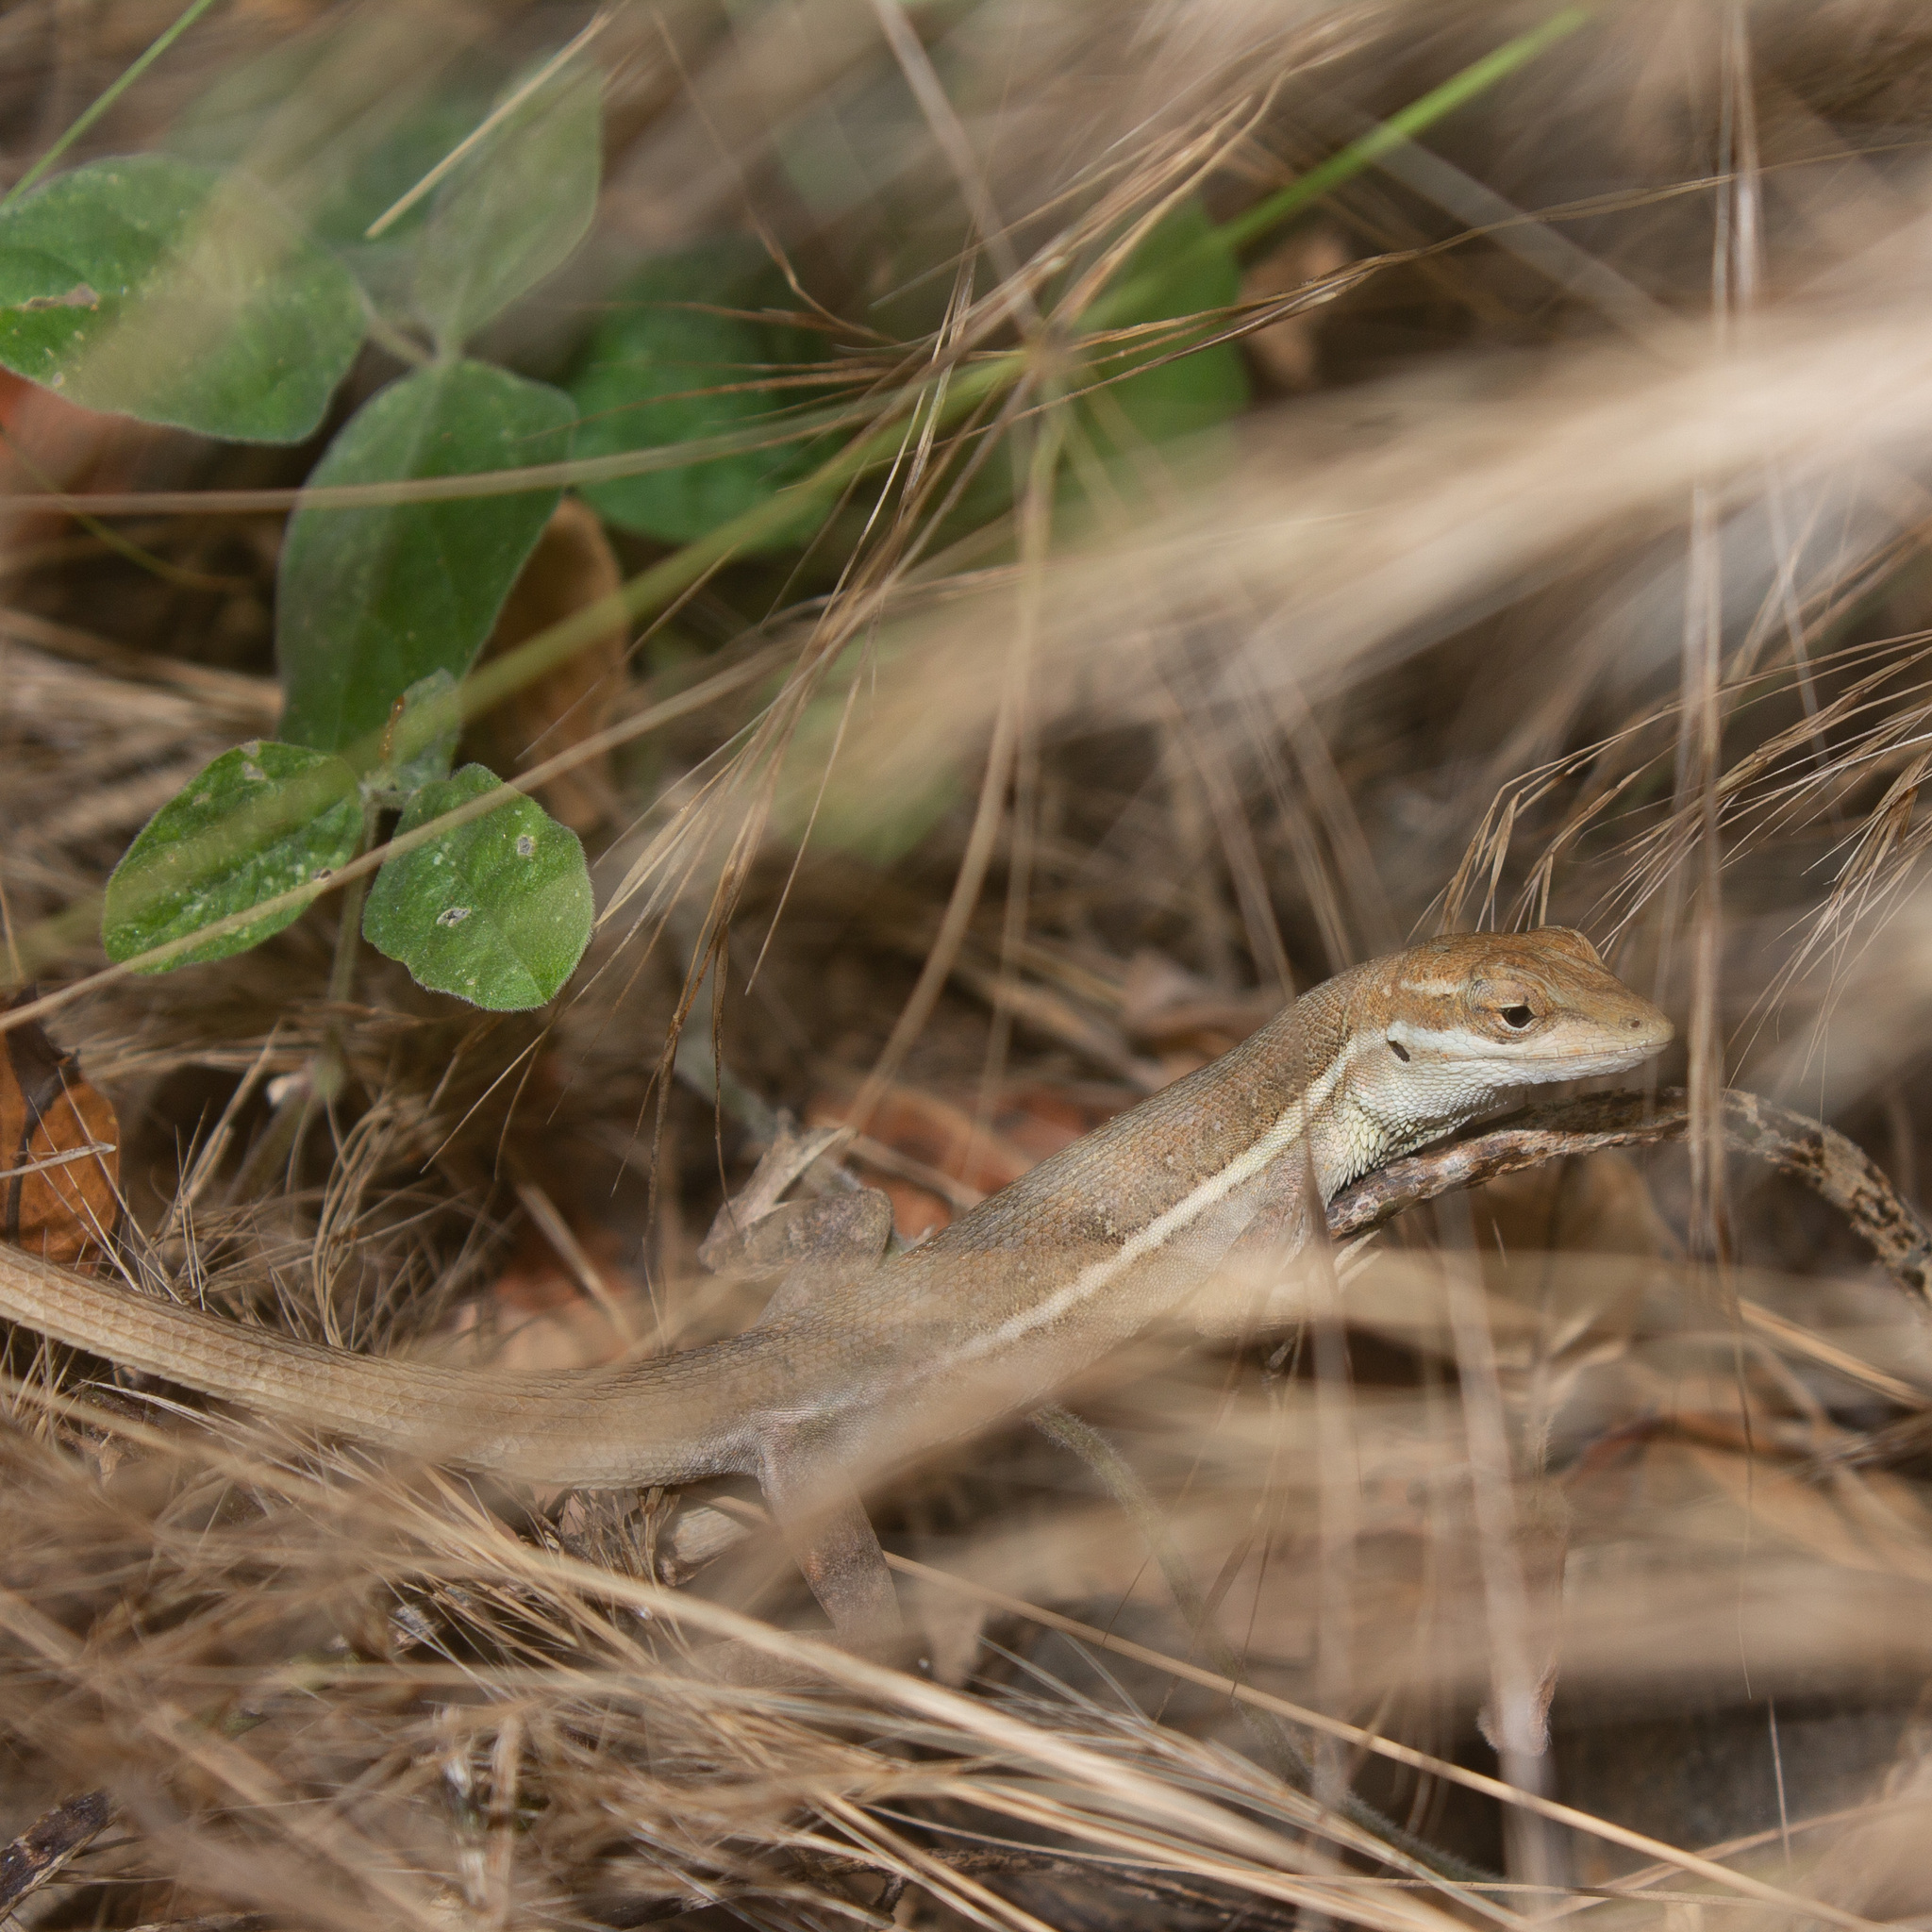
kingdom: Animalia
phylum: Chordata
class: Squamata
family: Dactyloidae
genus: Anolis
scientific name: Anolis auratus
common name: Grass anole
